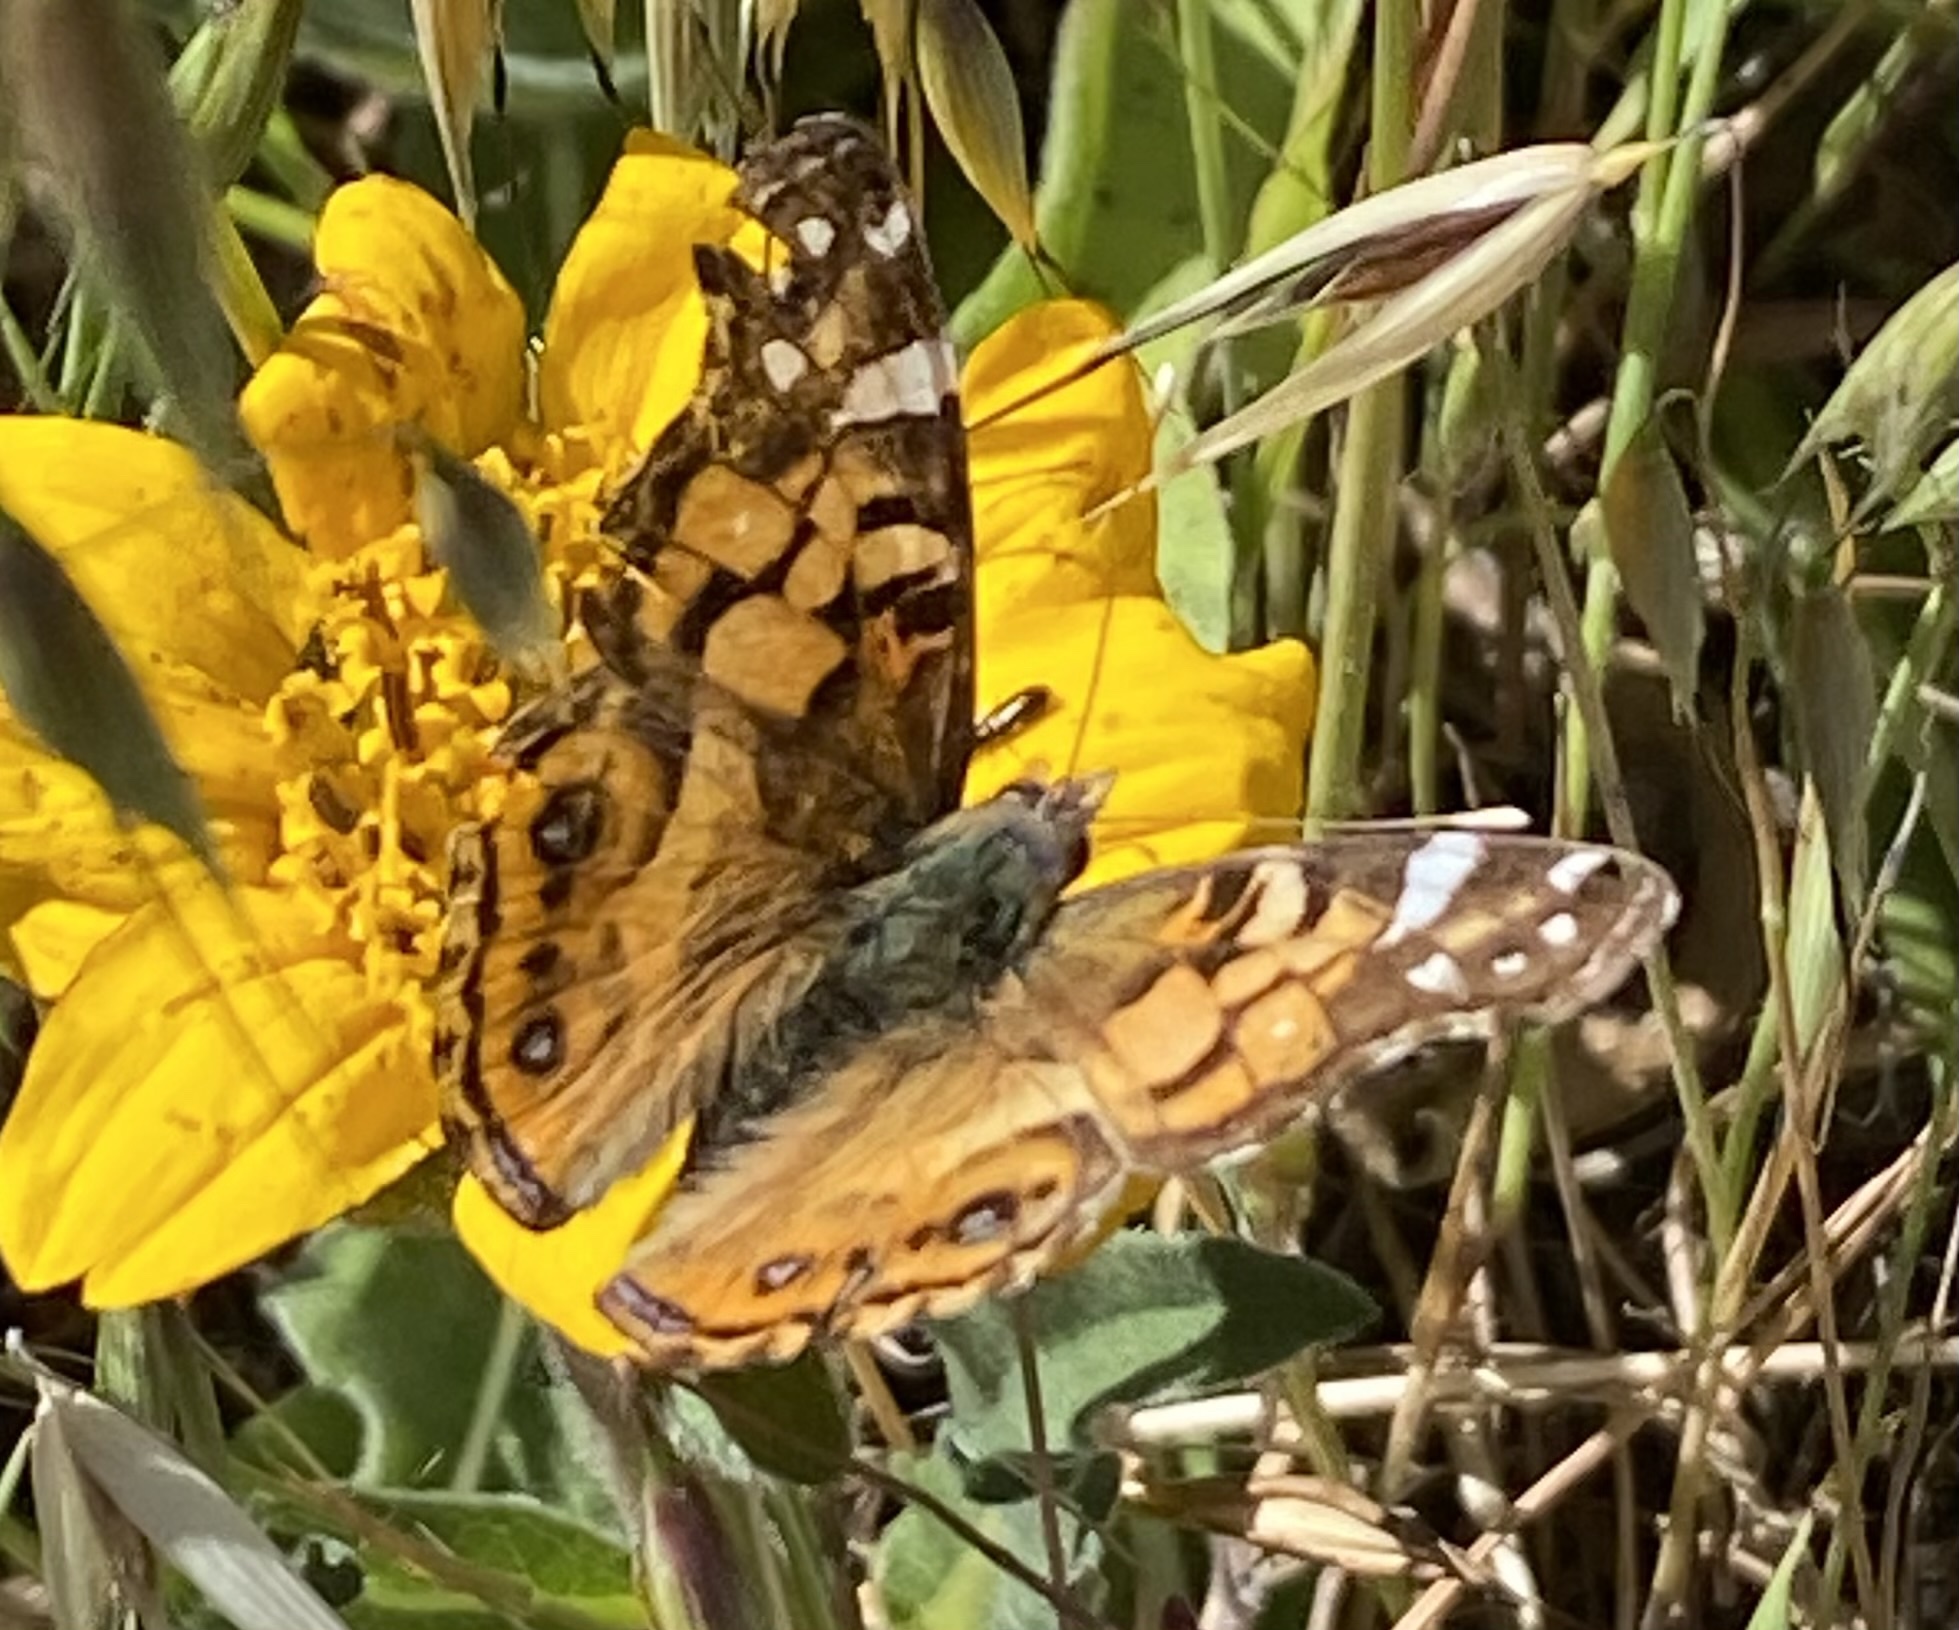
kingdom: Animalia
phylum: Arthropoda
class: Insecta
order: Lepidoptera
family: Nymphalidae
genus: Vanessa
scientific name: Vanessa virginiensis
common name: American lady
